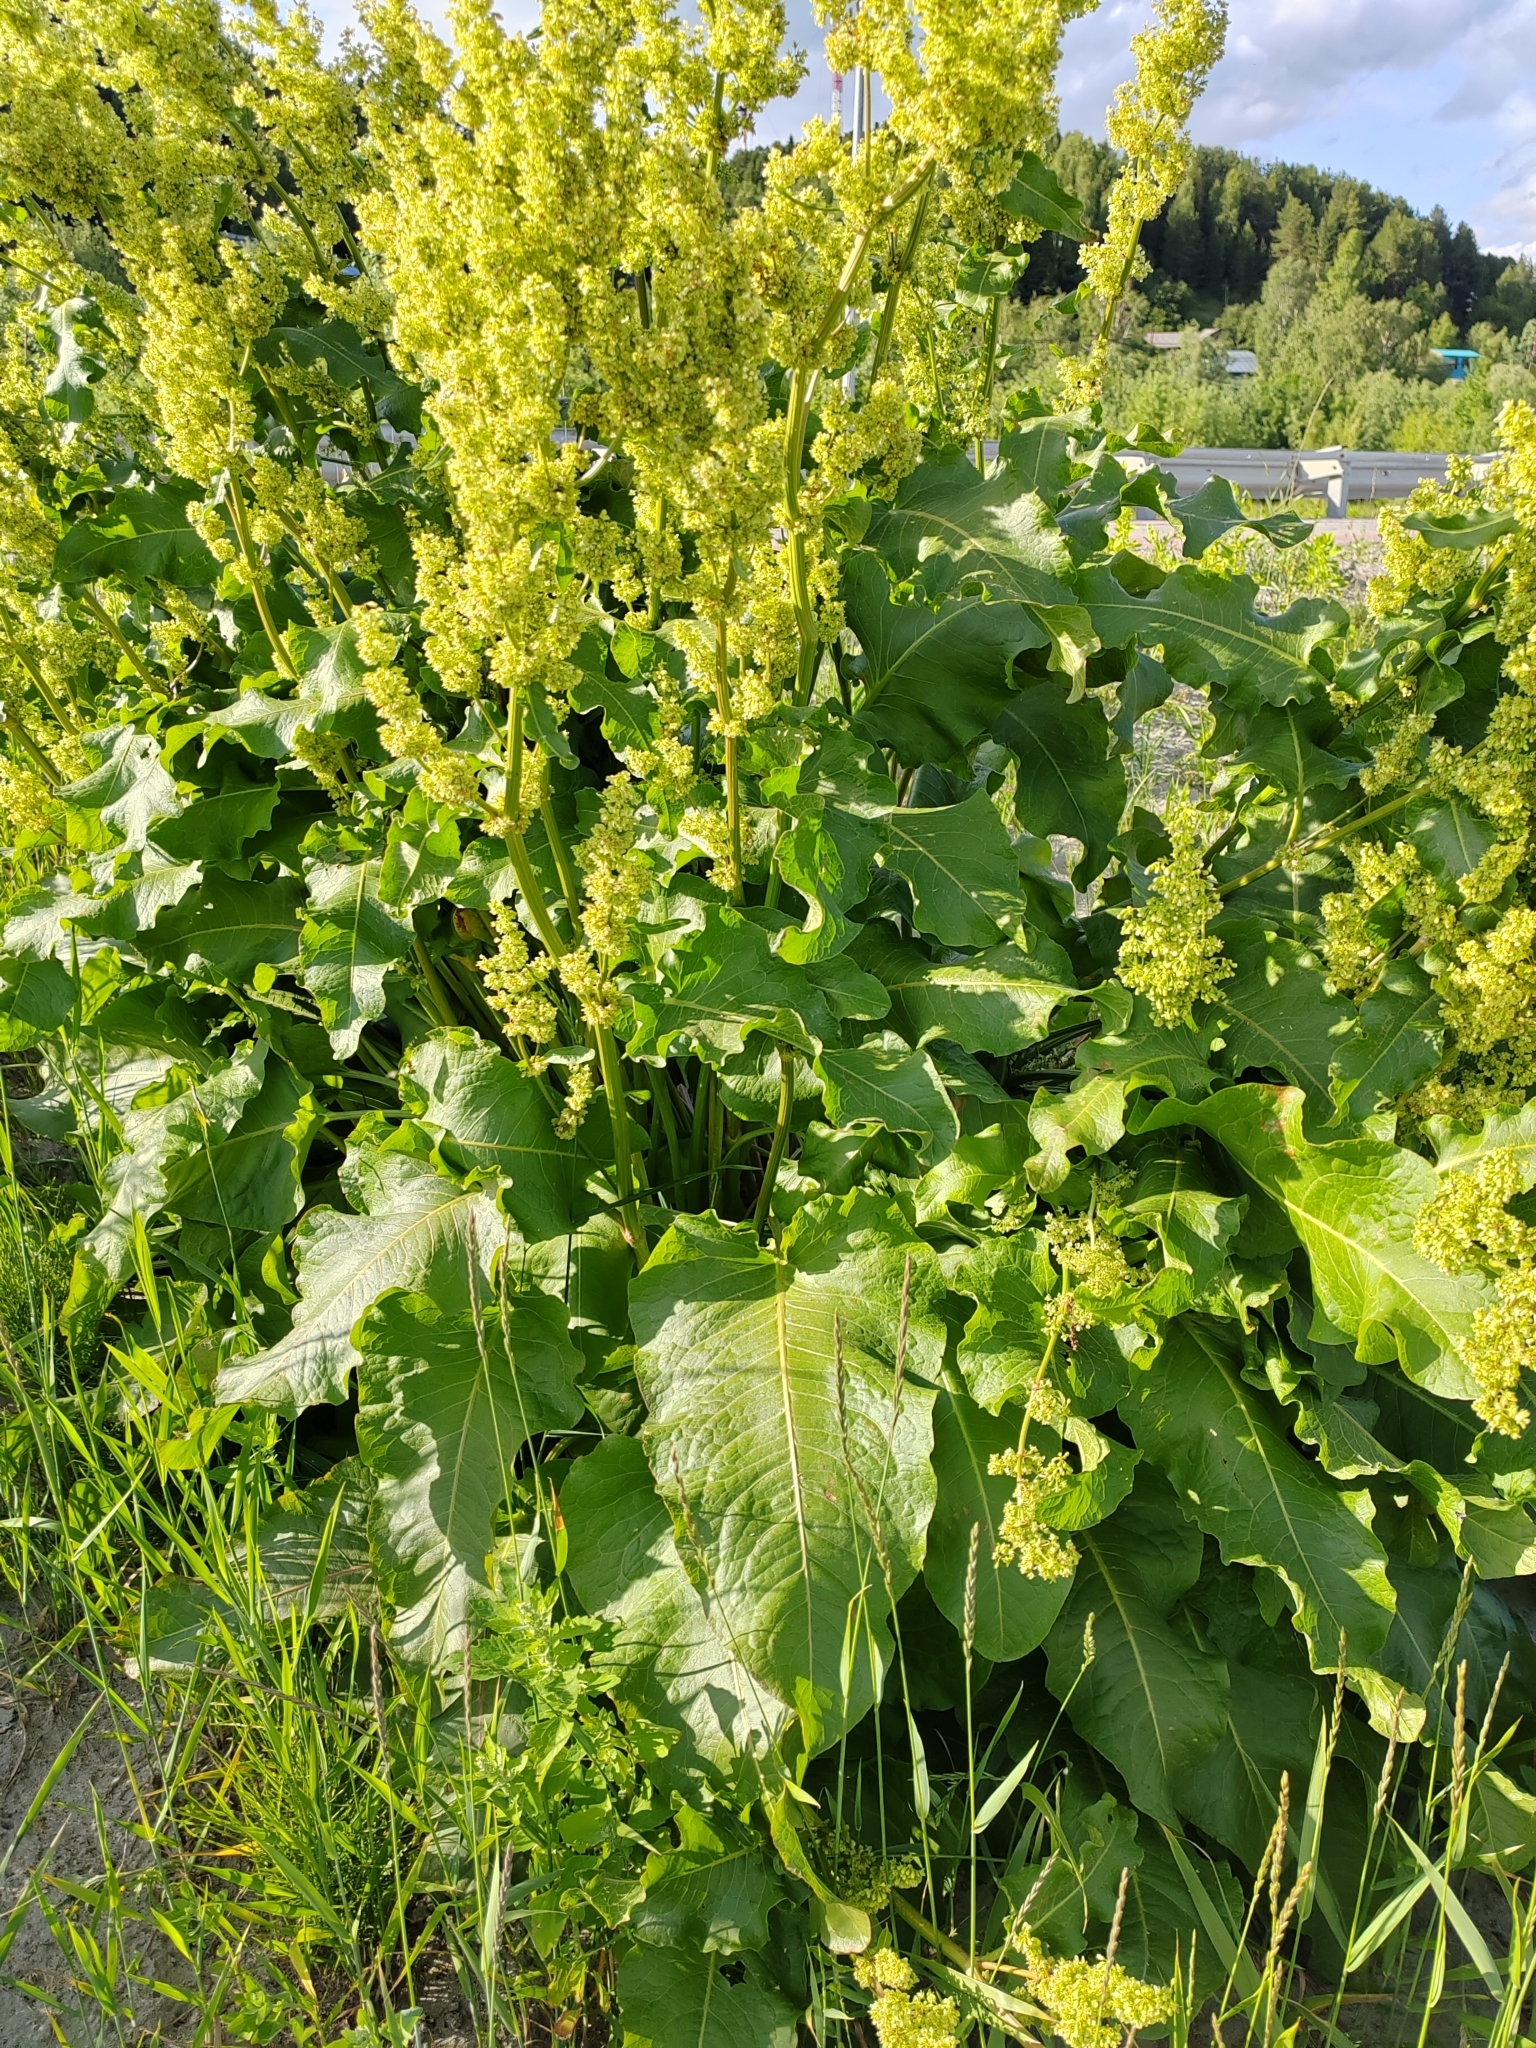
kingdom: Plantae
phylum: Tracheophyta
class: Magnoliopsida
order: Caryophyllales
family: Polygonaceae
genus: Rumex
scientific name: Rumex confertus
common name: Russian dock
